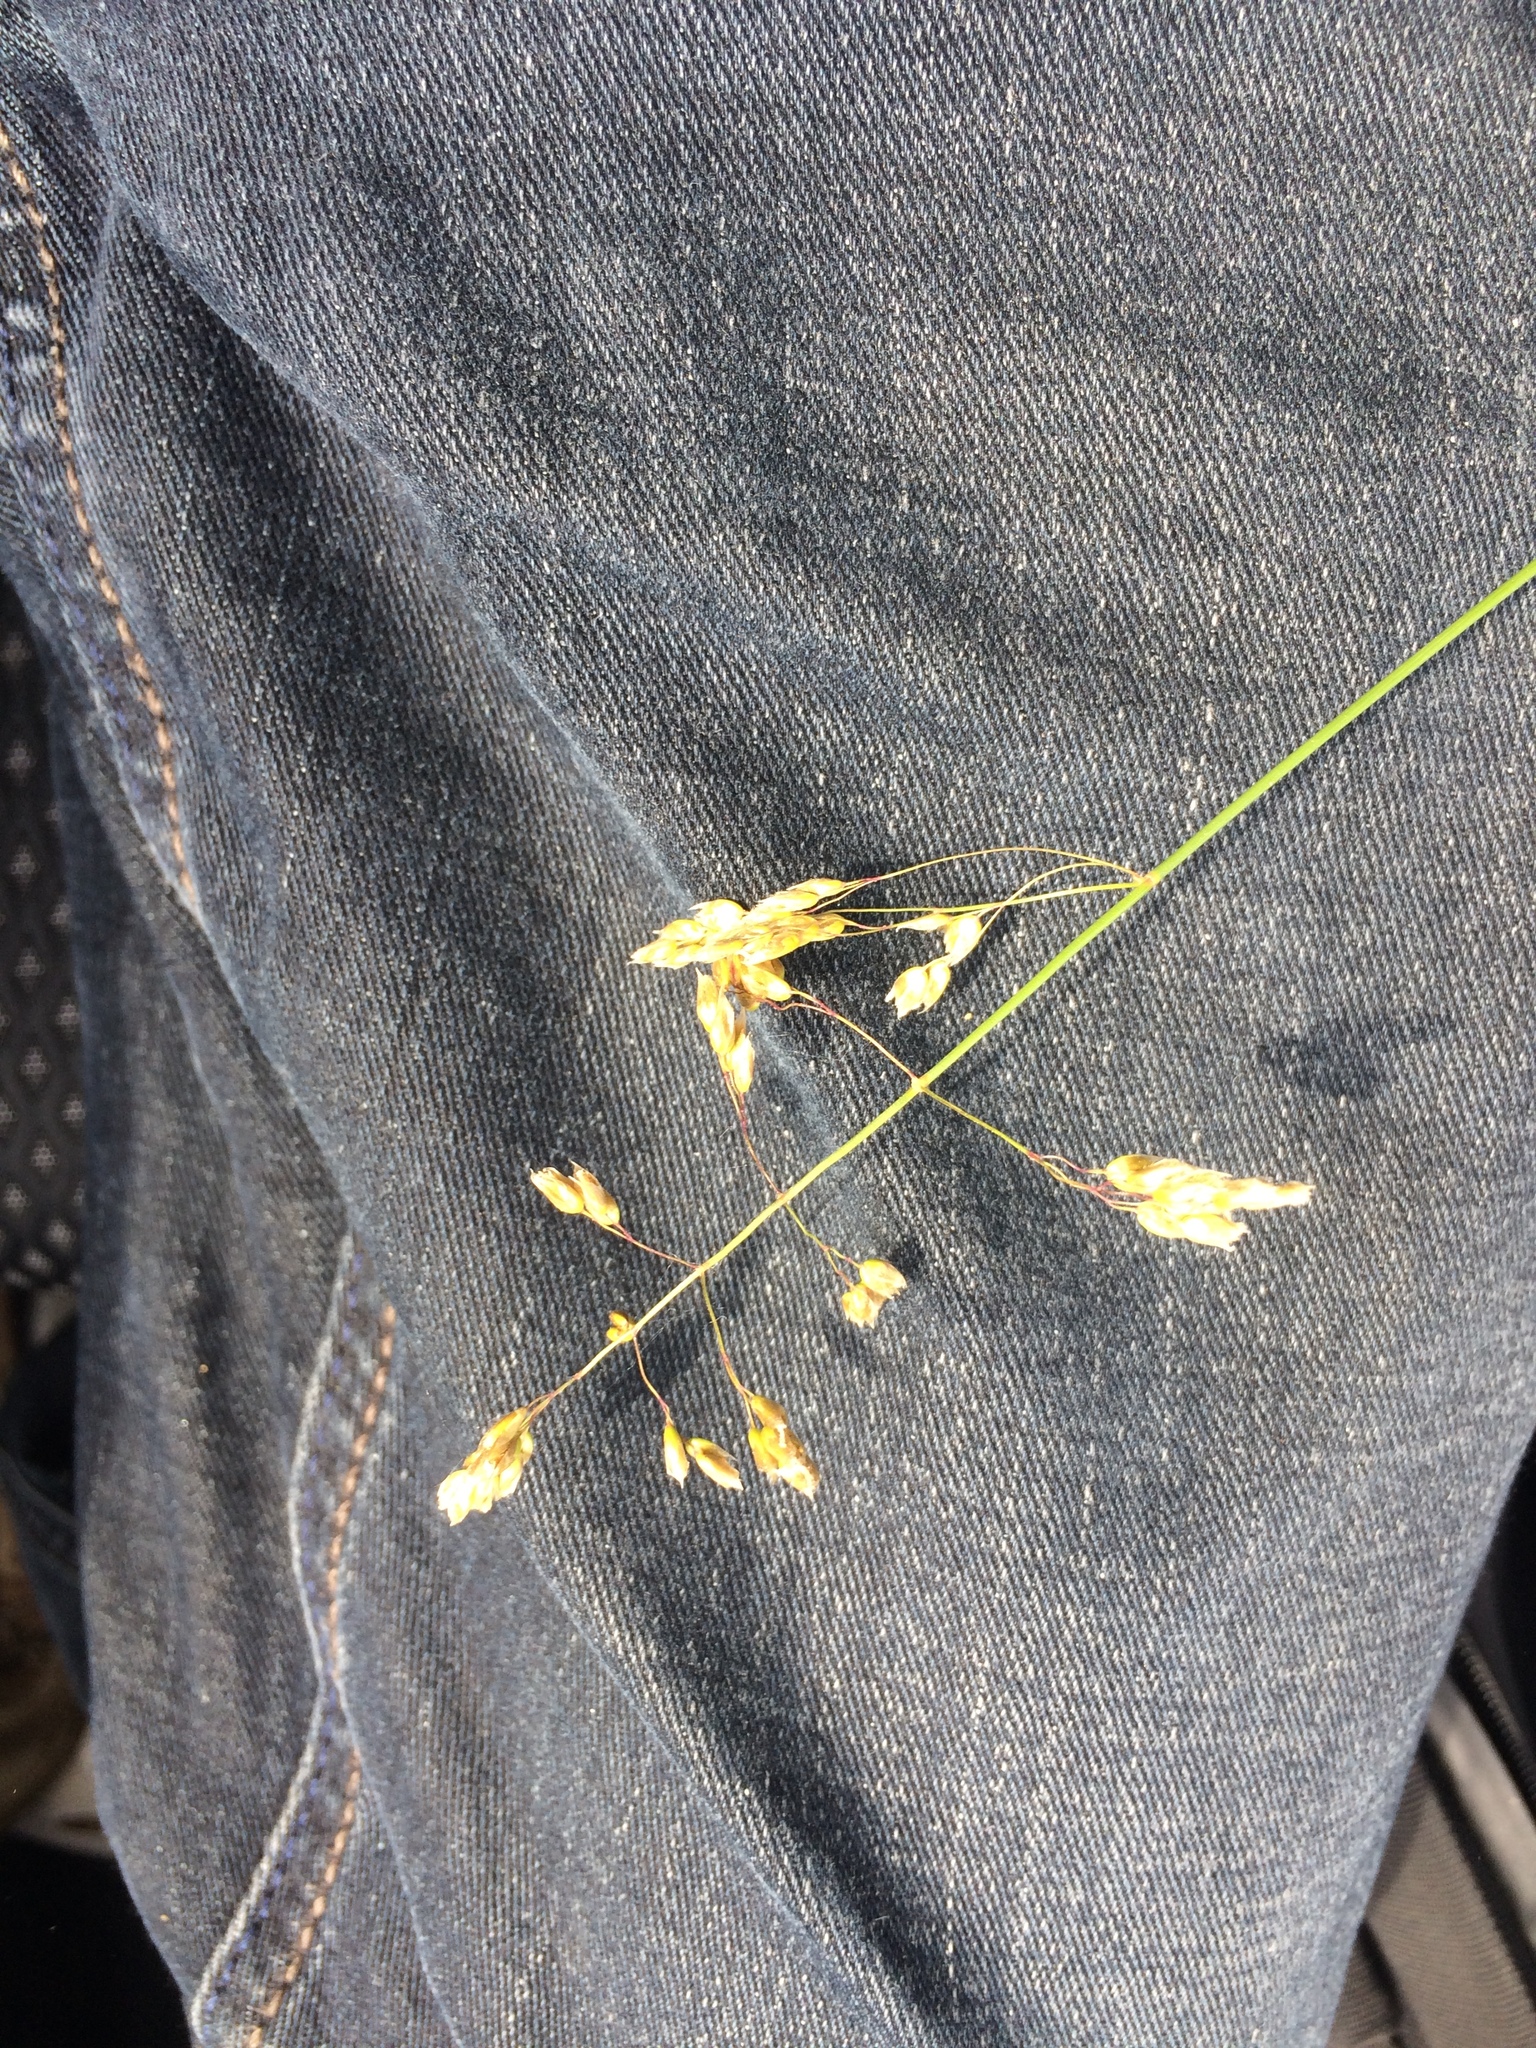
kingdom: Plantae
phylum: Tracheophyta
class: Liliopsida
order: Poales
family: Poaceae
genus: Anthoxanthum
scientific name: Anthoxanthum nitens
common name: Holy grass
